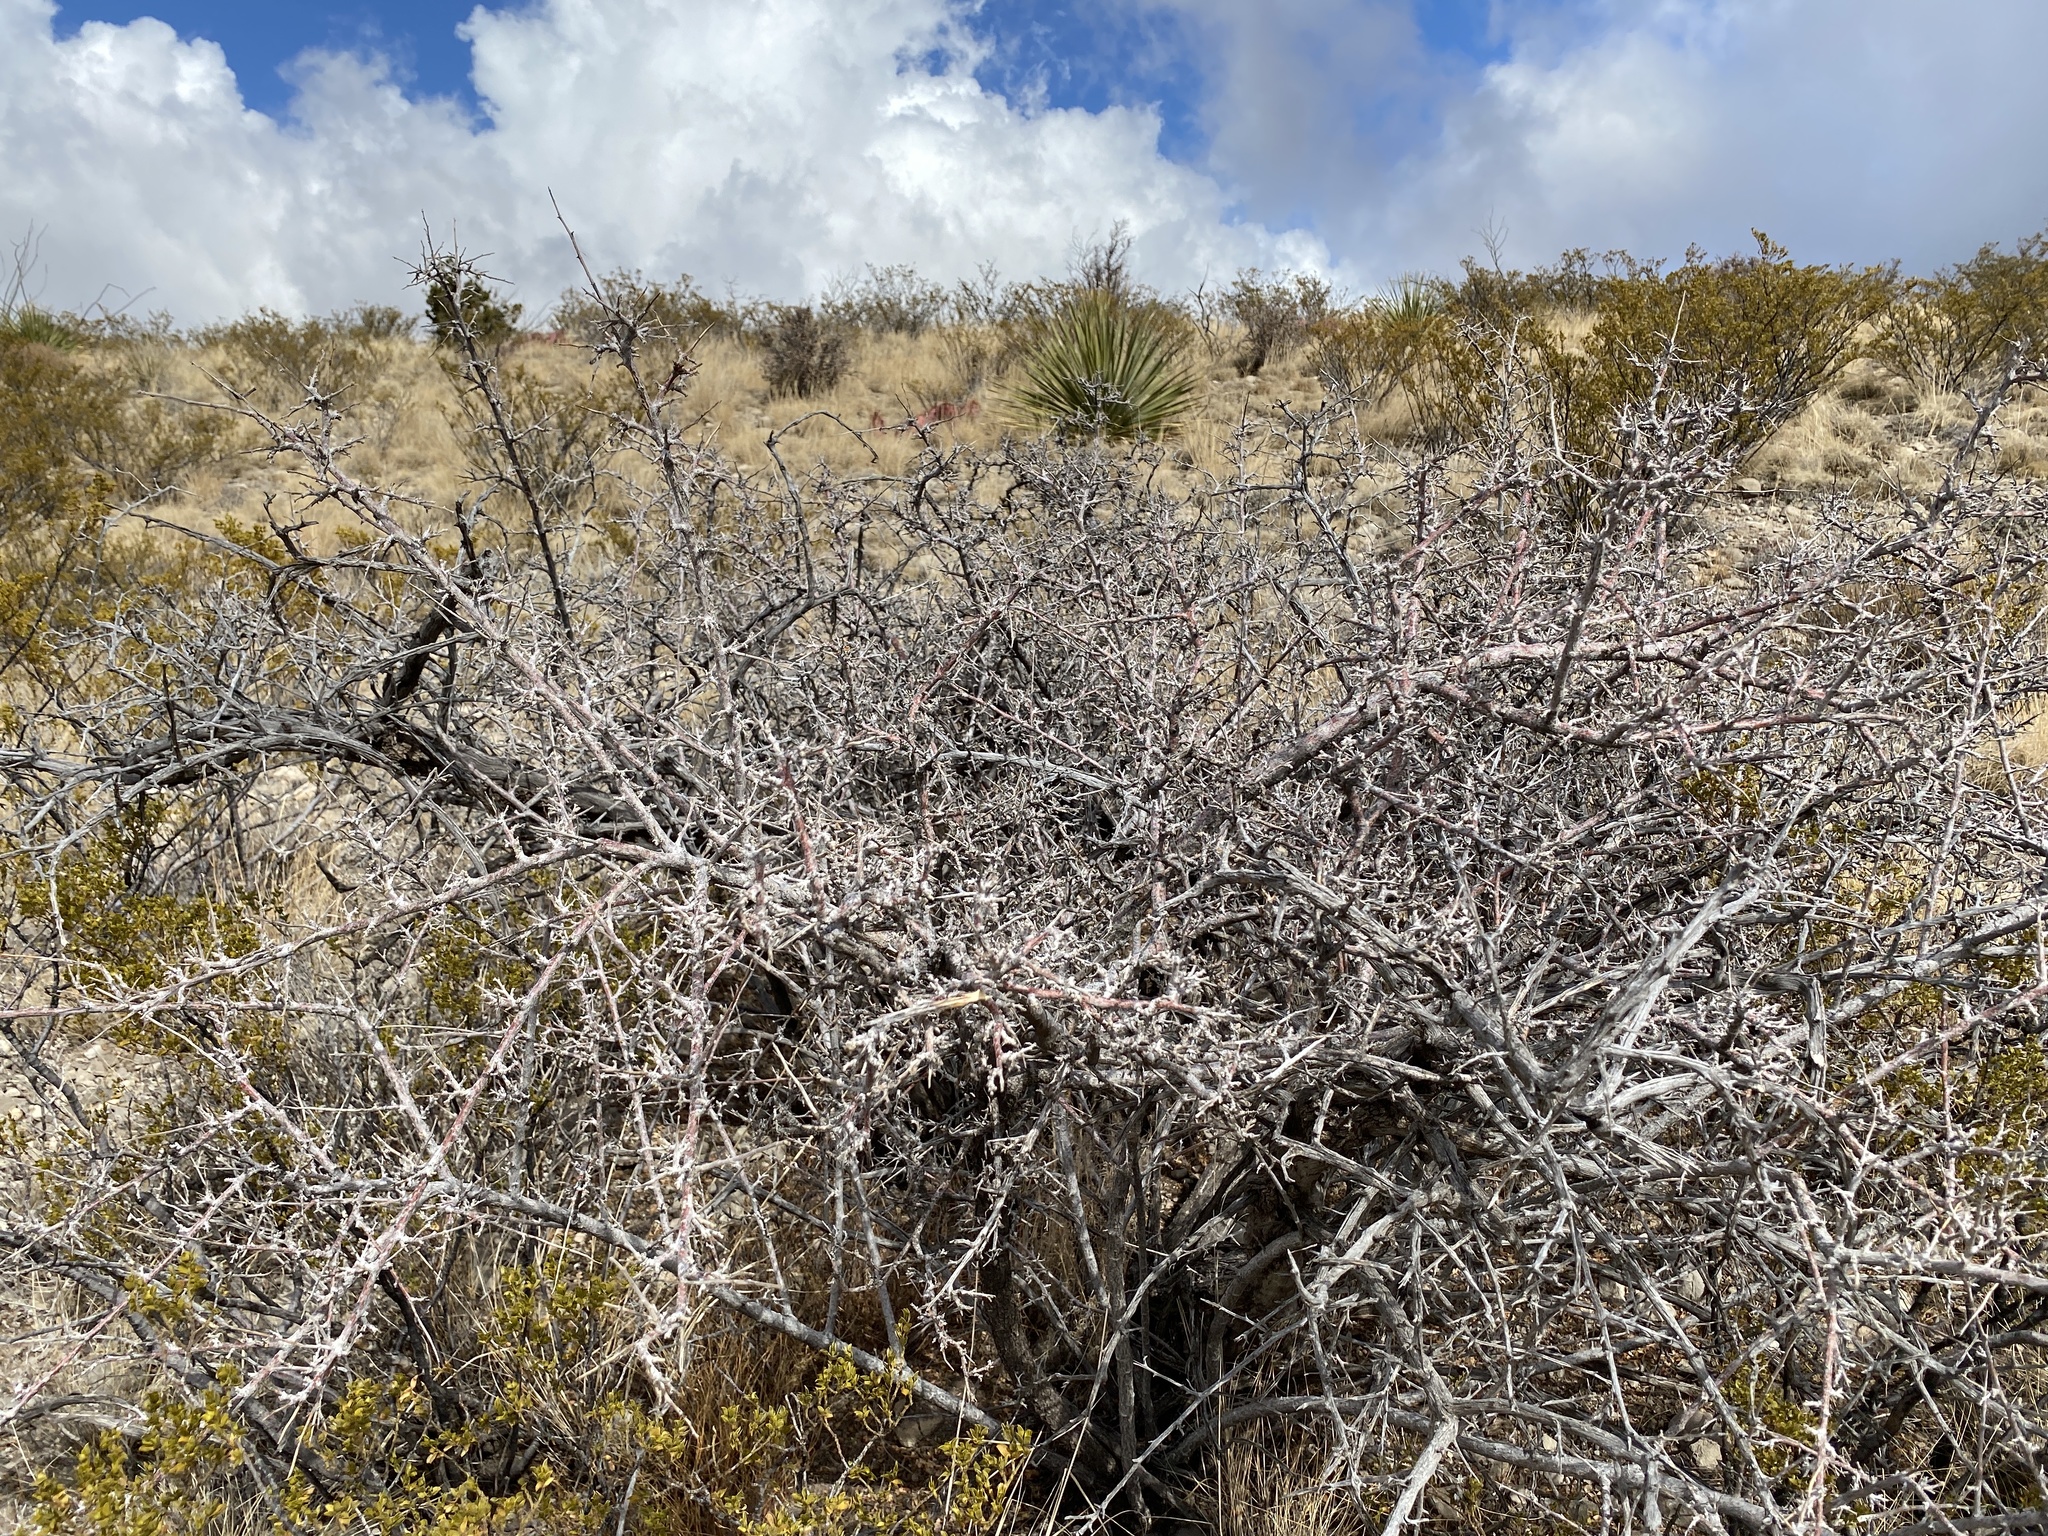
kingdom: Plantae
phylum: Tracheophyta
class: Magnoliopsida
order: Sapindales
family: Anacardiaceae
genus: Rhus
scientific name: Rhus microphylla
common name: Desert sumac
